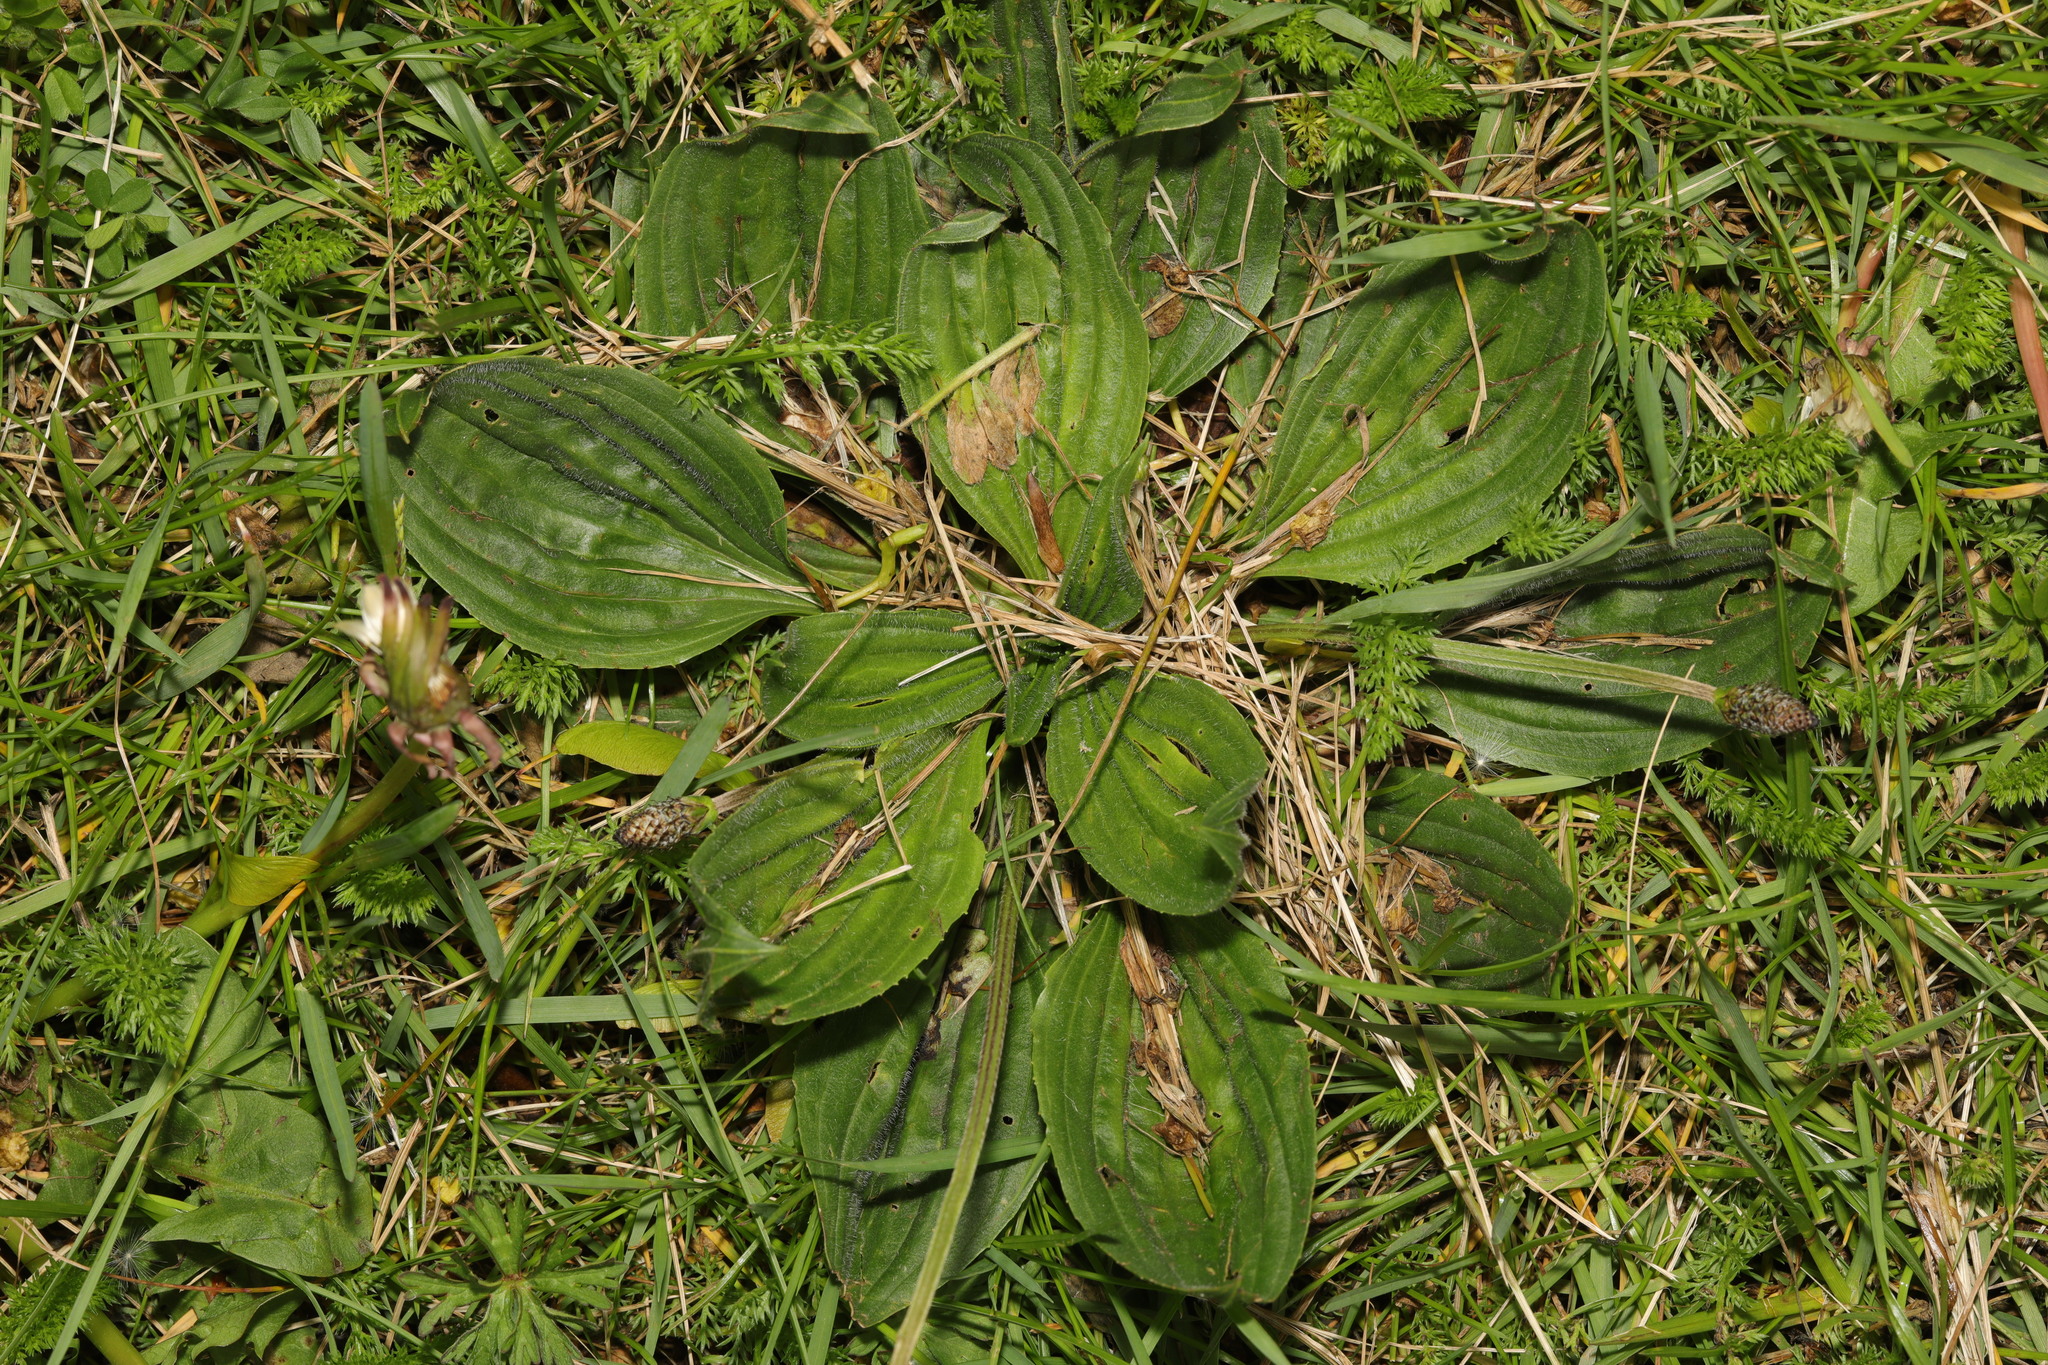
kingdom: Plantae
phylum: Tracheophyta
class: Magnoliopsida
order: Lamiales
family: Plantaginaceae
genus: Plantago
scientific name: Plantago media
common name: Hoary plantain
